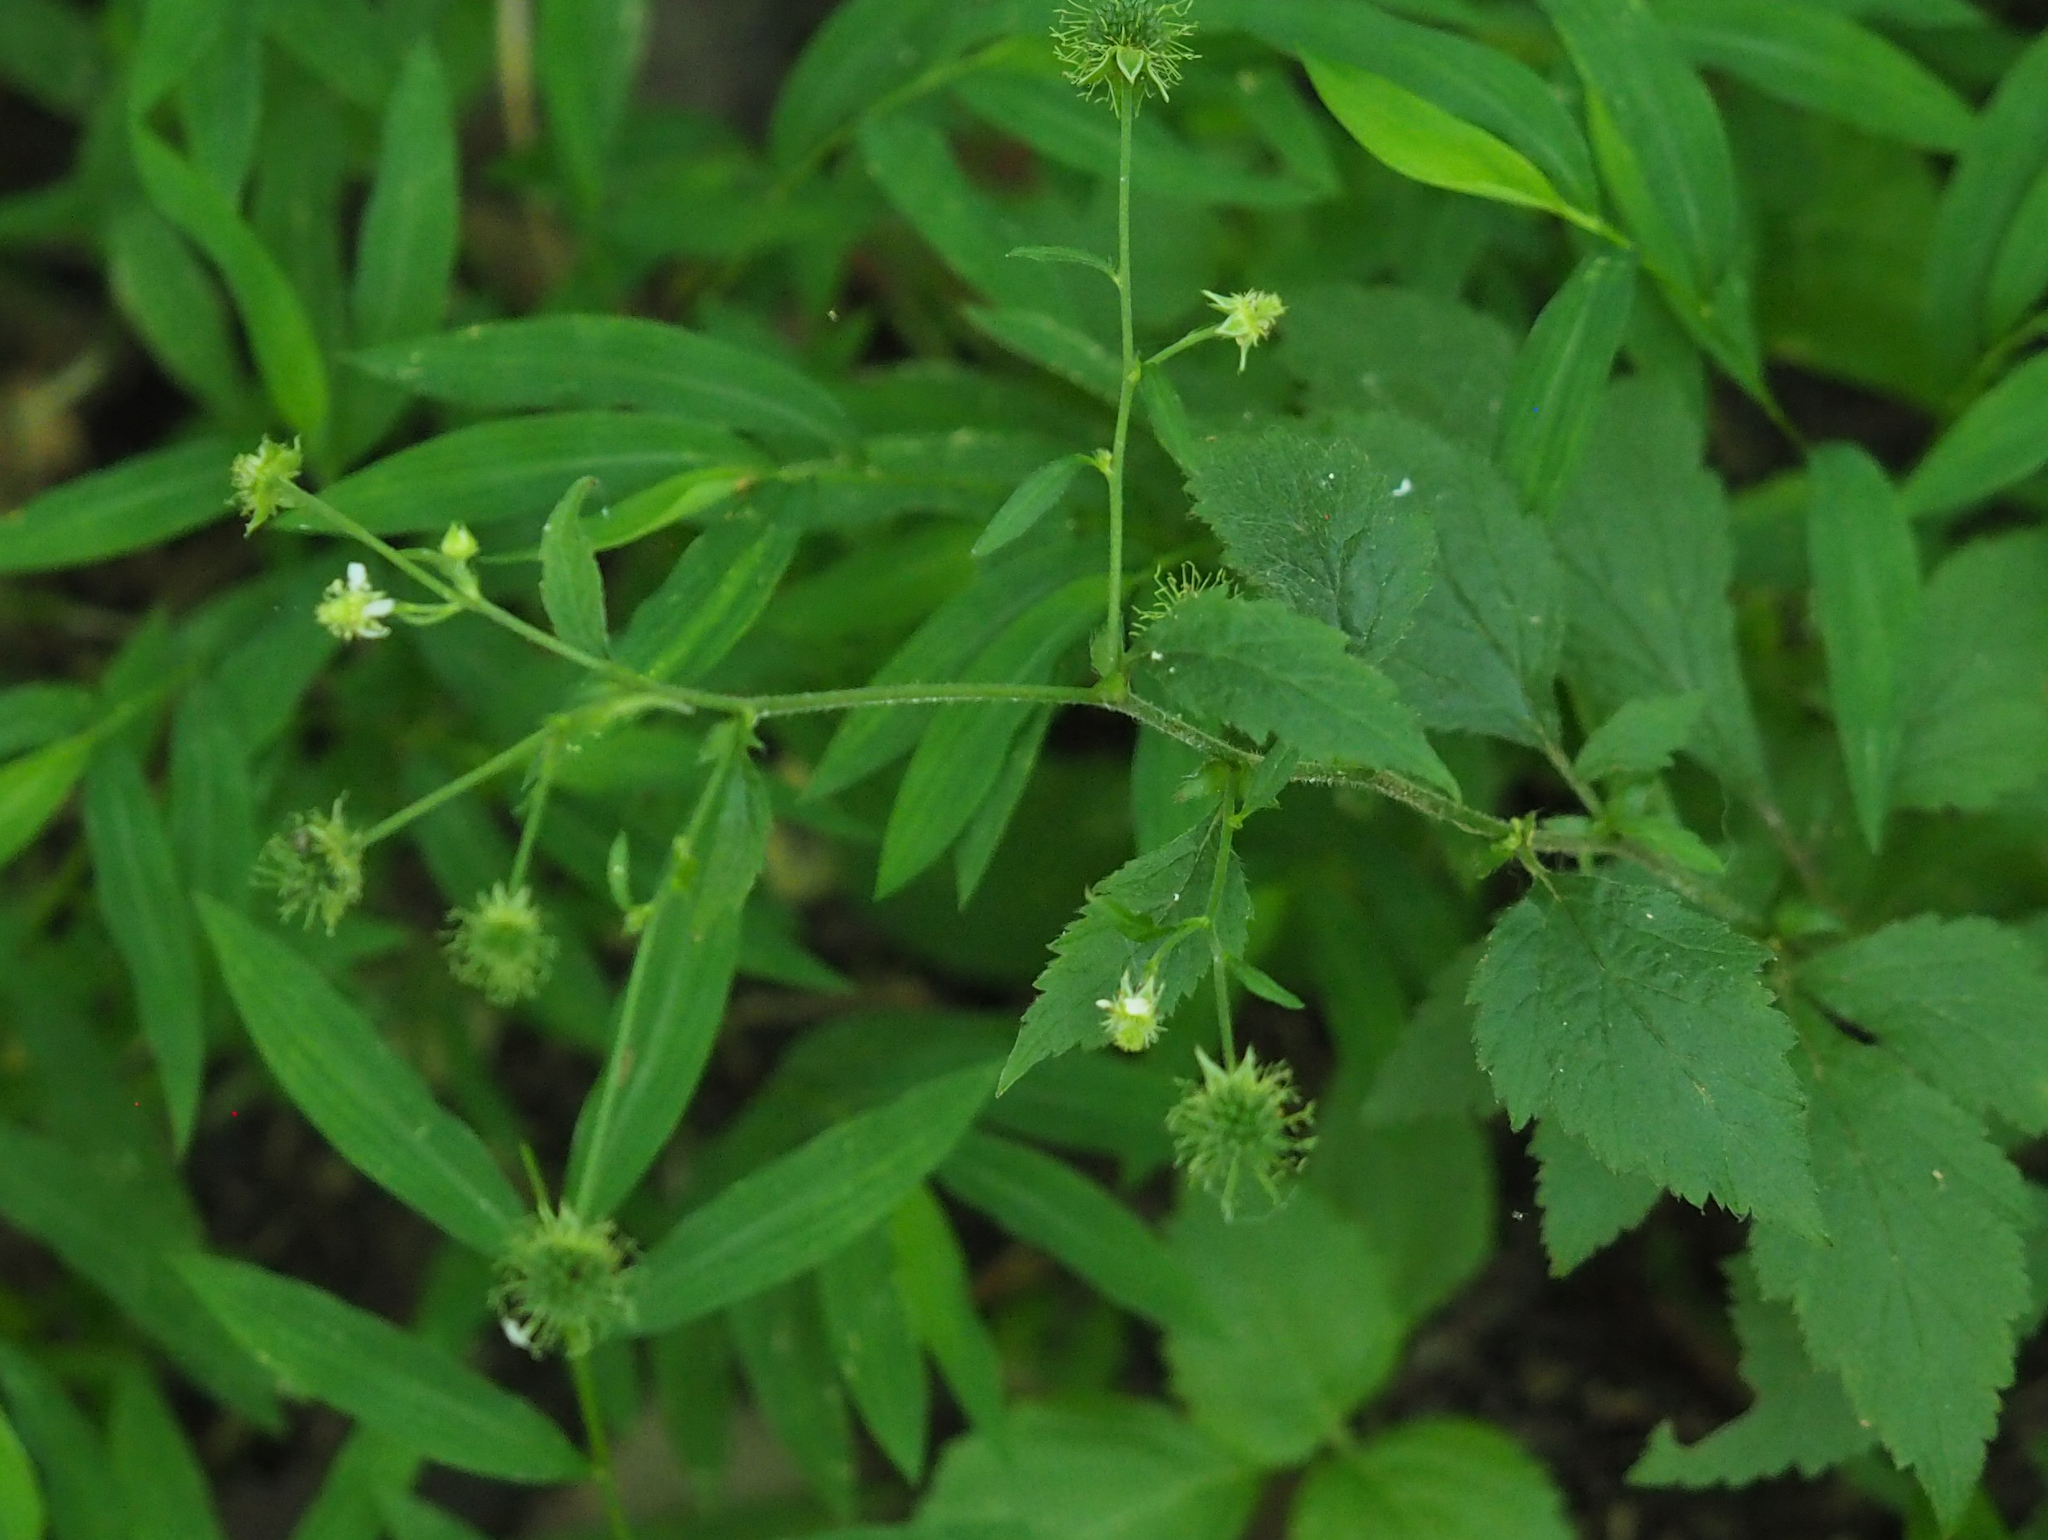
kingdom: Plantae
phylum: Tracheophyta
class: Magnoliopsida
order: Rosales
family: Rosaceae
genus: Geum
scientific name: Geum canadense
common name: White avens
